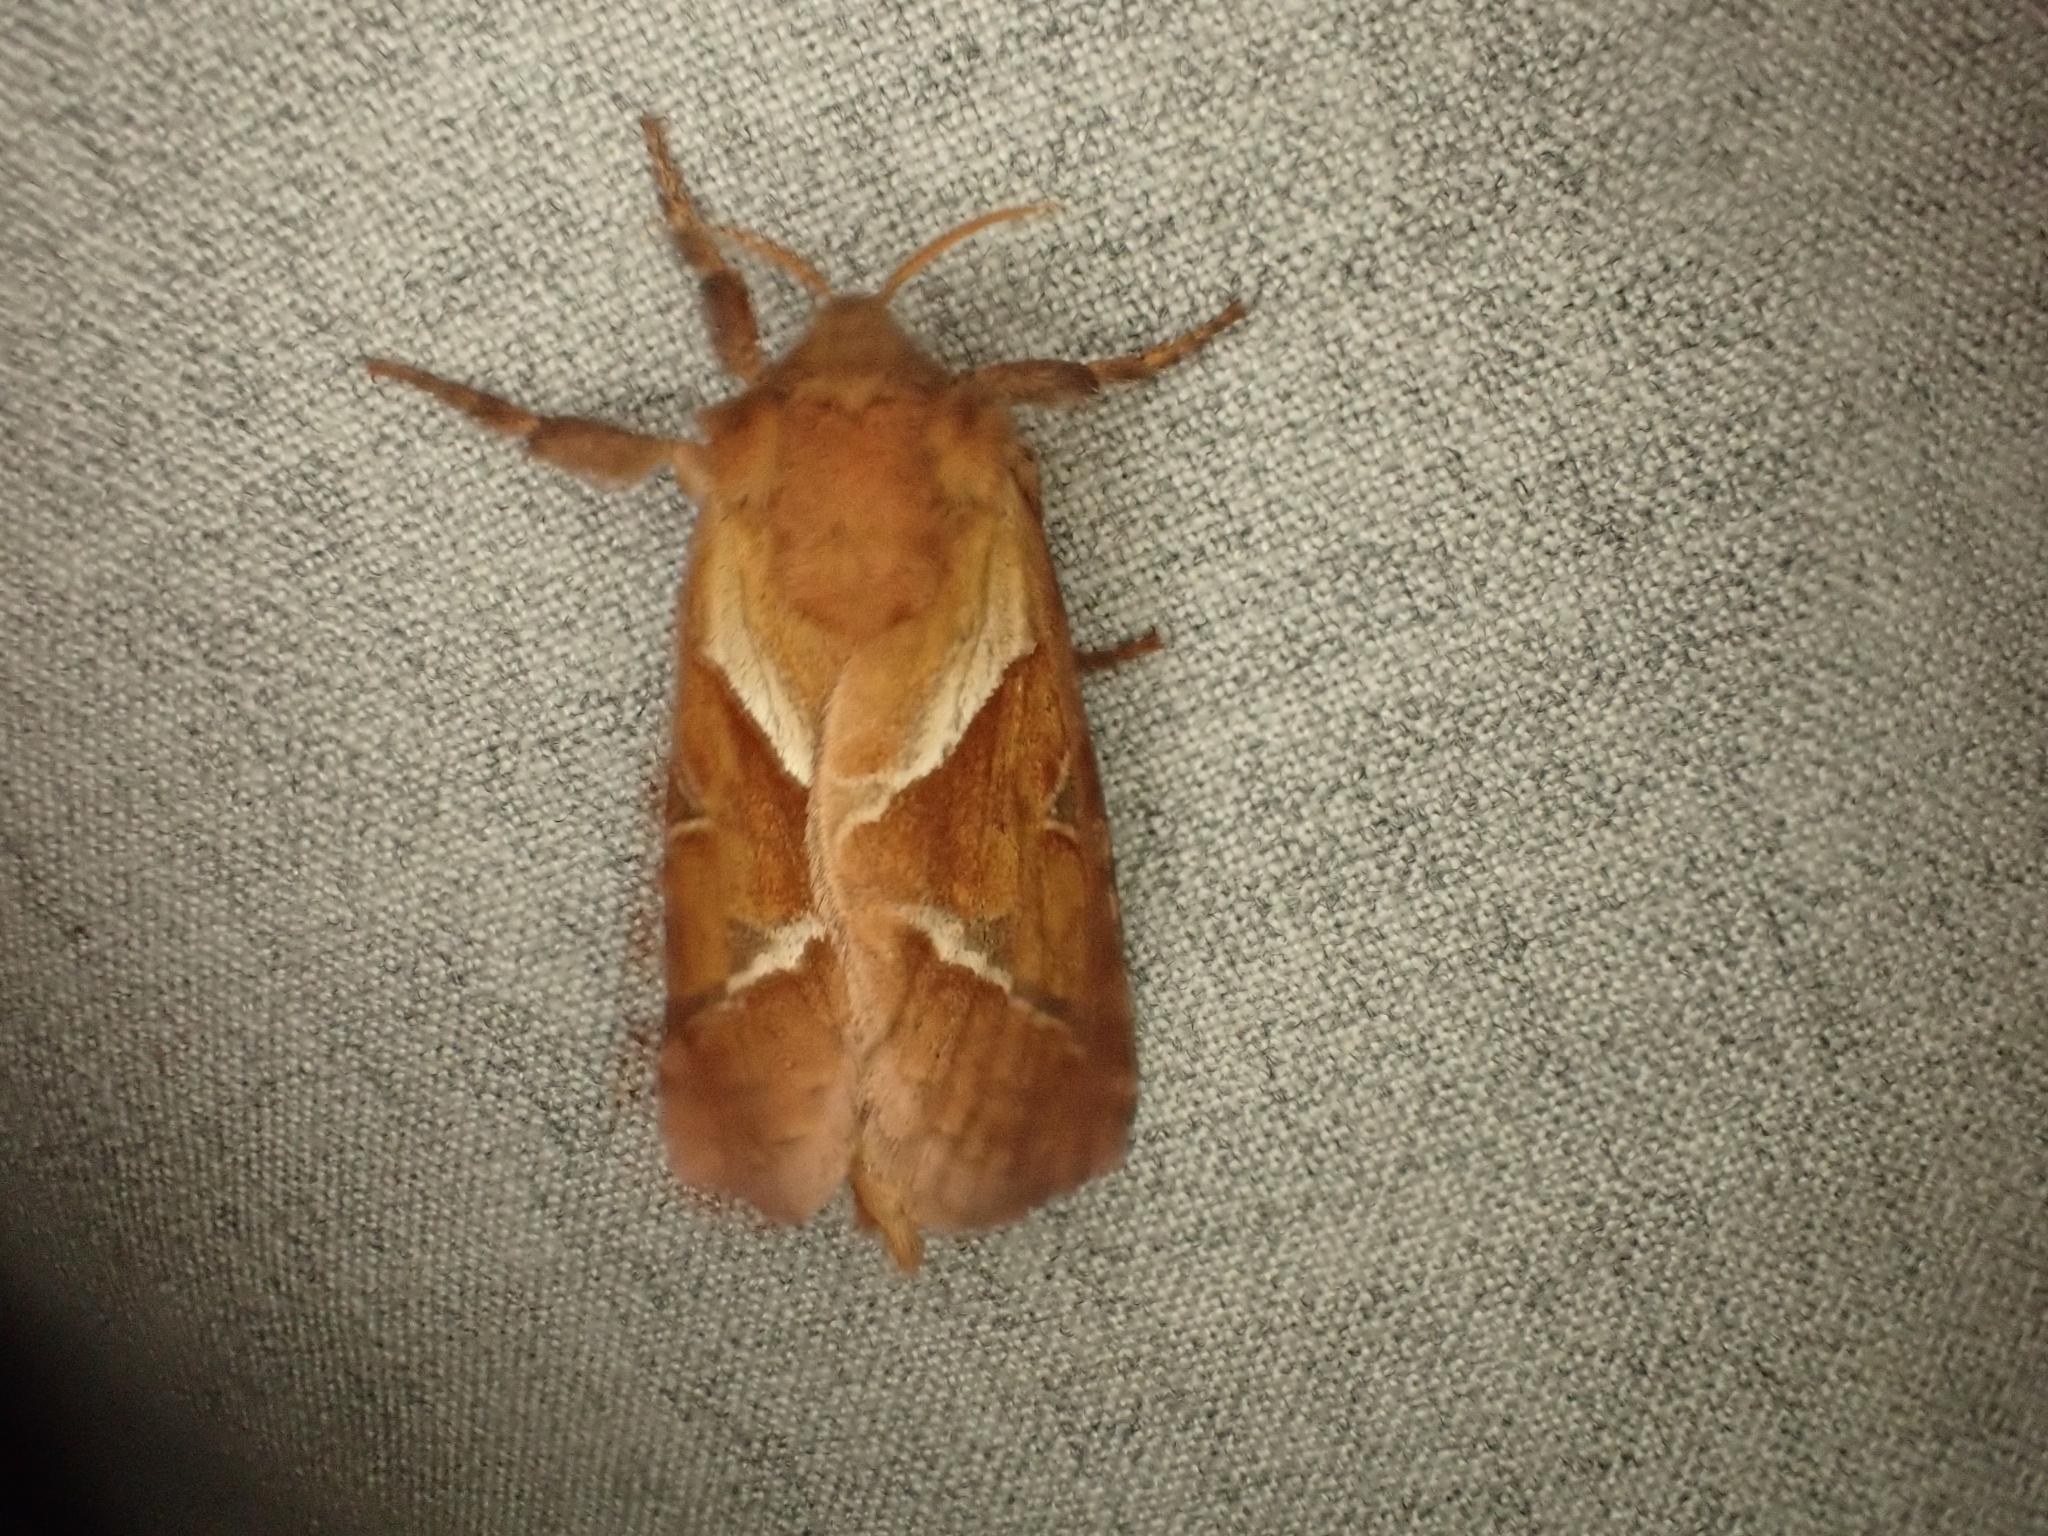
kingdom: Animalia
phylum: Arthropoda
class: Insecta
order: Lepidoptera
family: Hepialidae
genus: Triodia
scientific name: Triodia sylvina
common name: Orange swift
